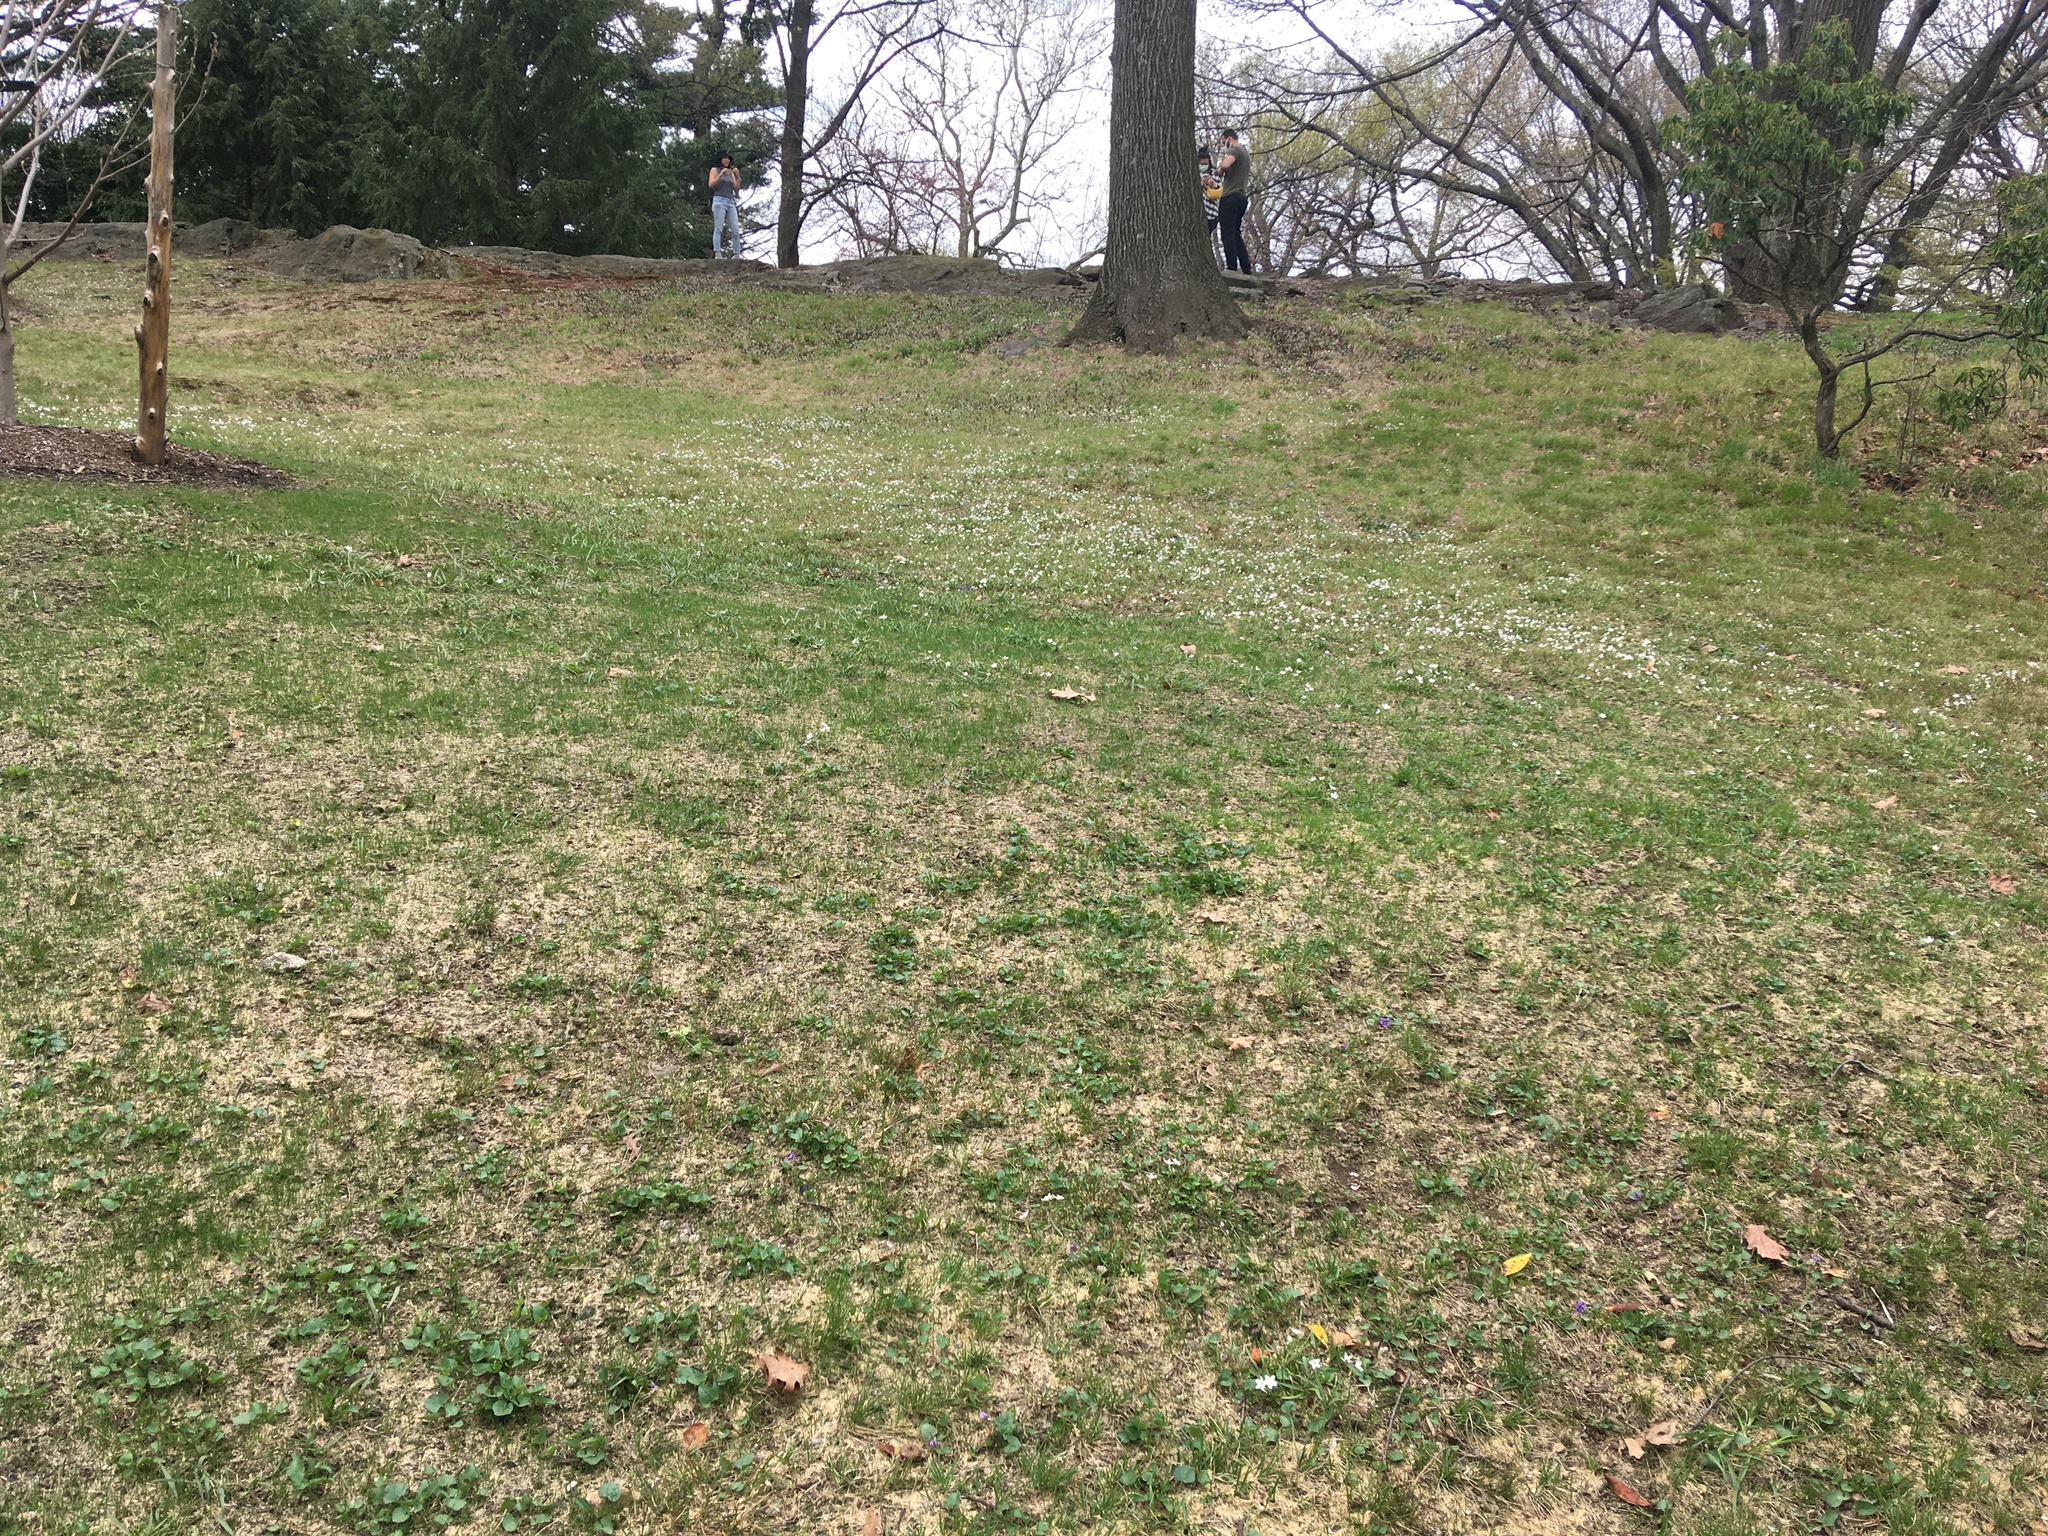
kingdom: Plantae
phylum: Tracheophyta
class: Magnoliopsida
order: Caryophyllales
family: Montiaceae
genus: Claytonia
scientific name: Claytonia virginica
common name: Virginia springbeauty
